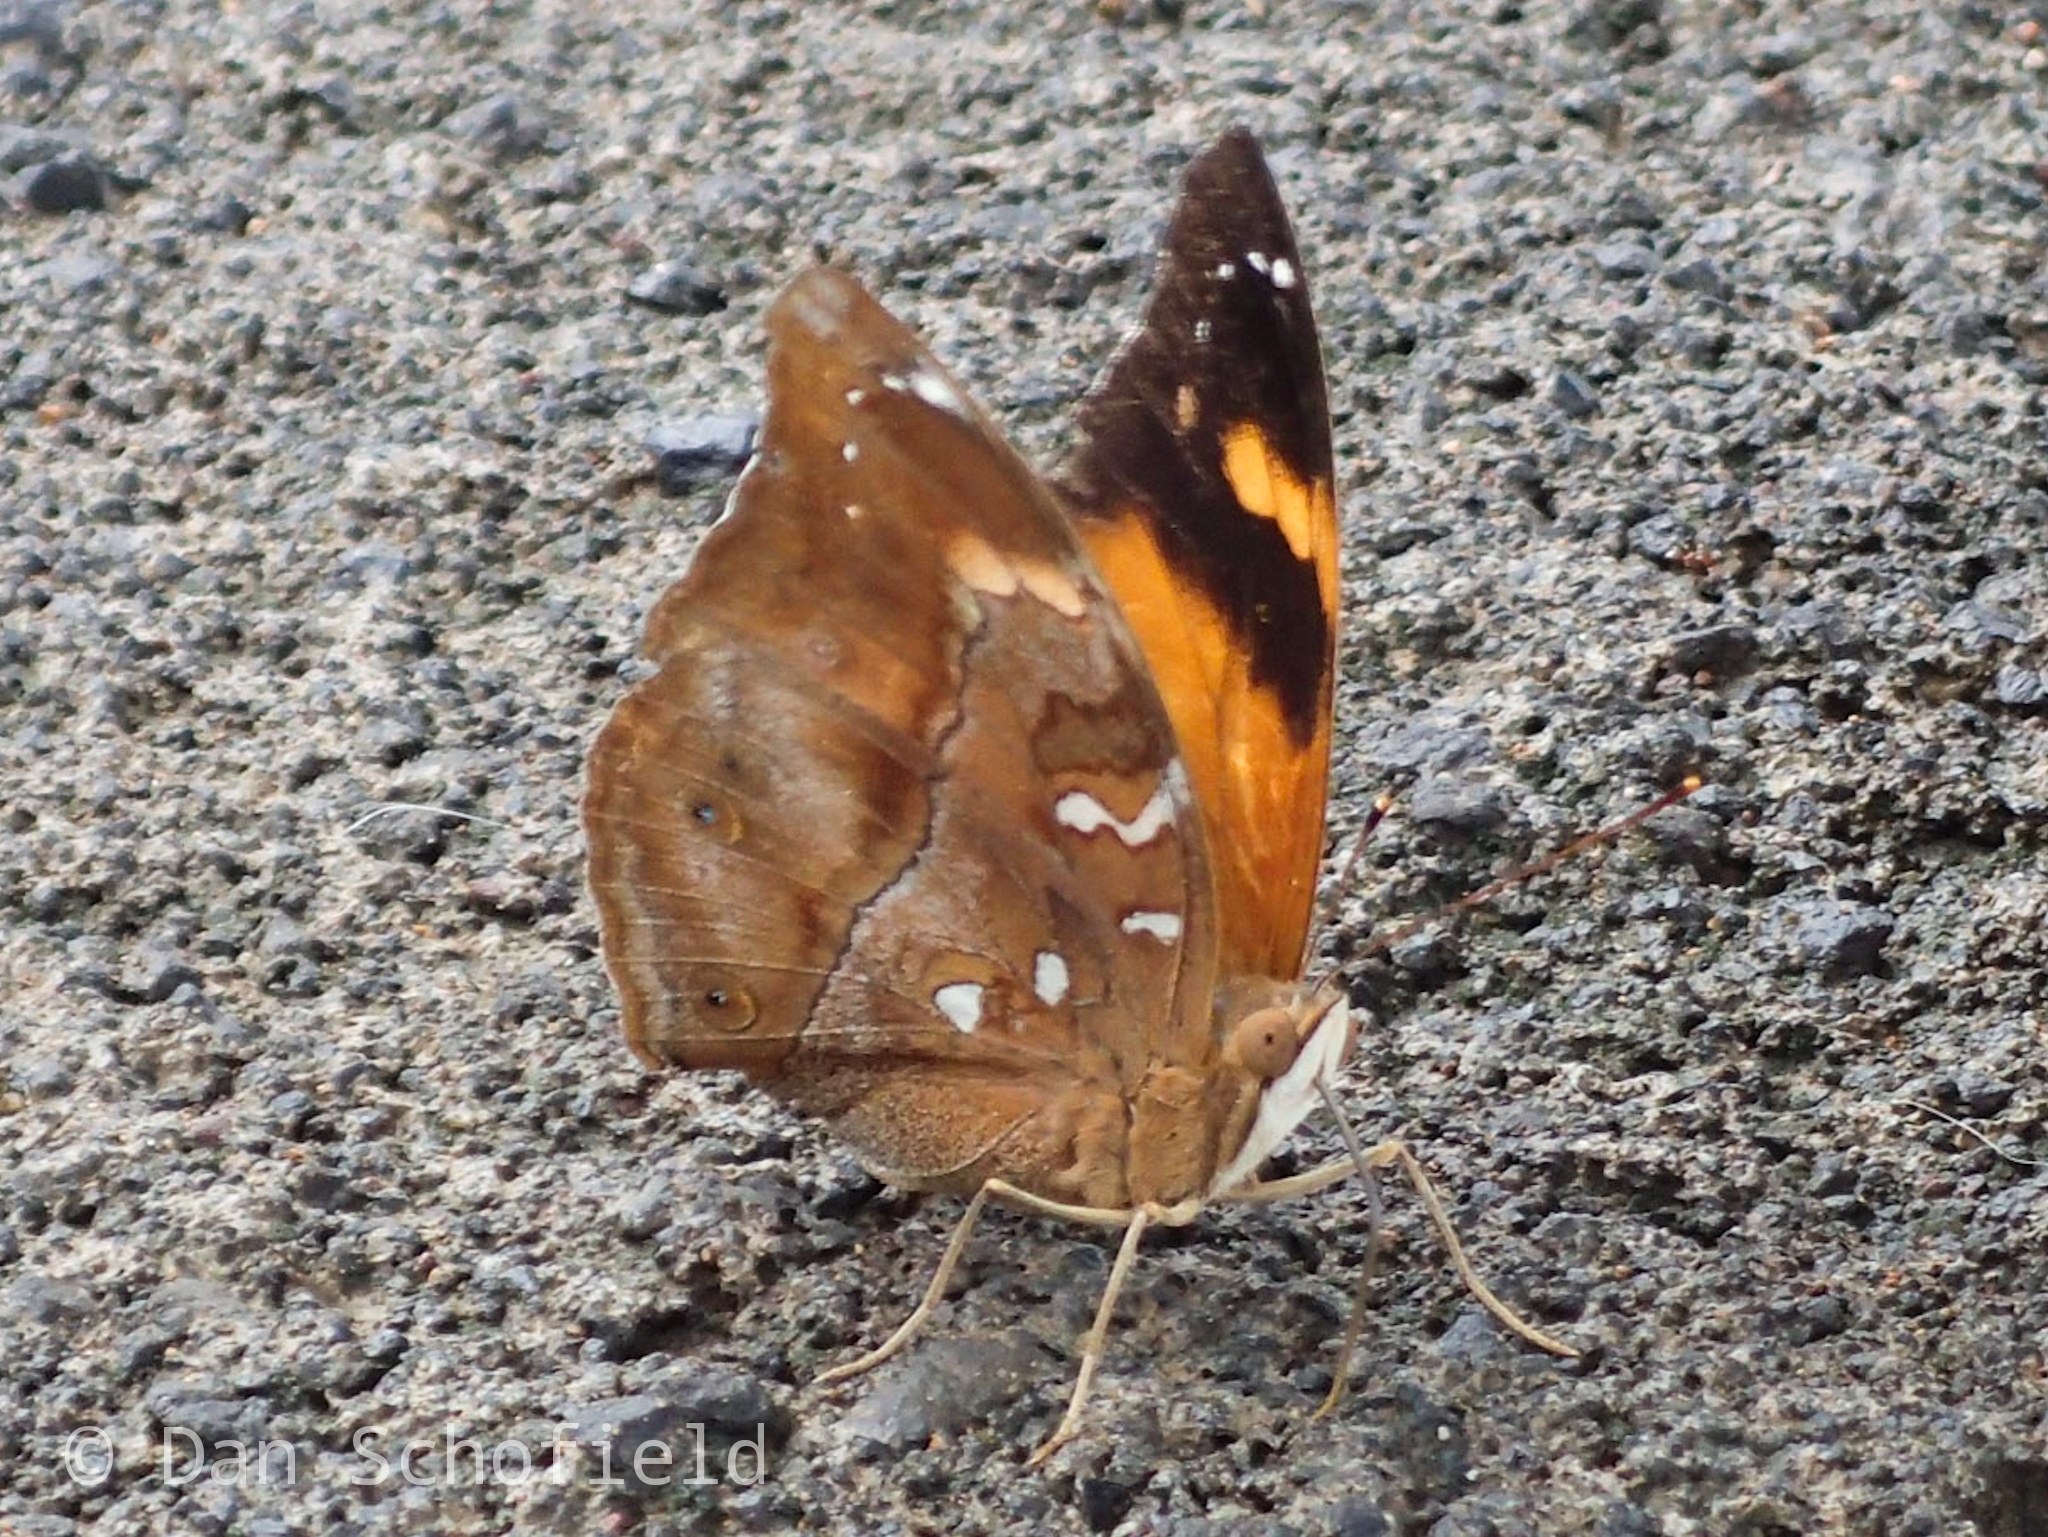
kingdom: Animalia
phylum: Arthropoda
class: Insecta
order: Lepidoptera
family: Nymphalidae
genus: Doleschallia
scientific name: Doleschallia bisaltide
